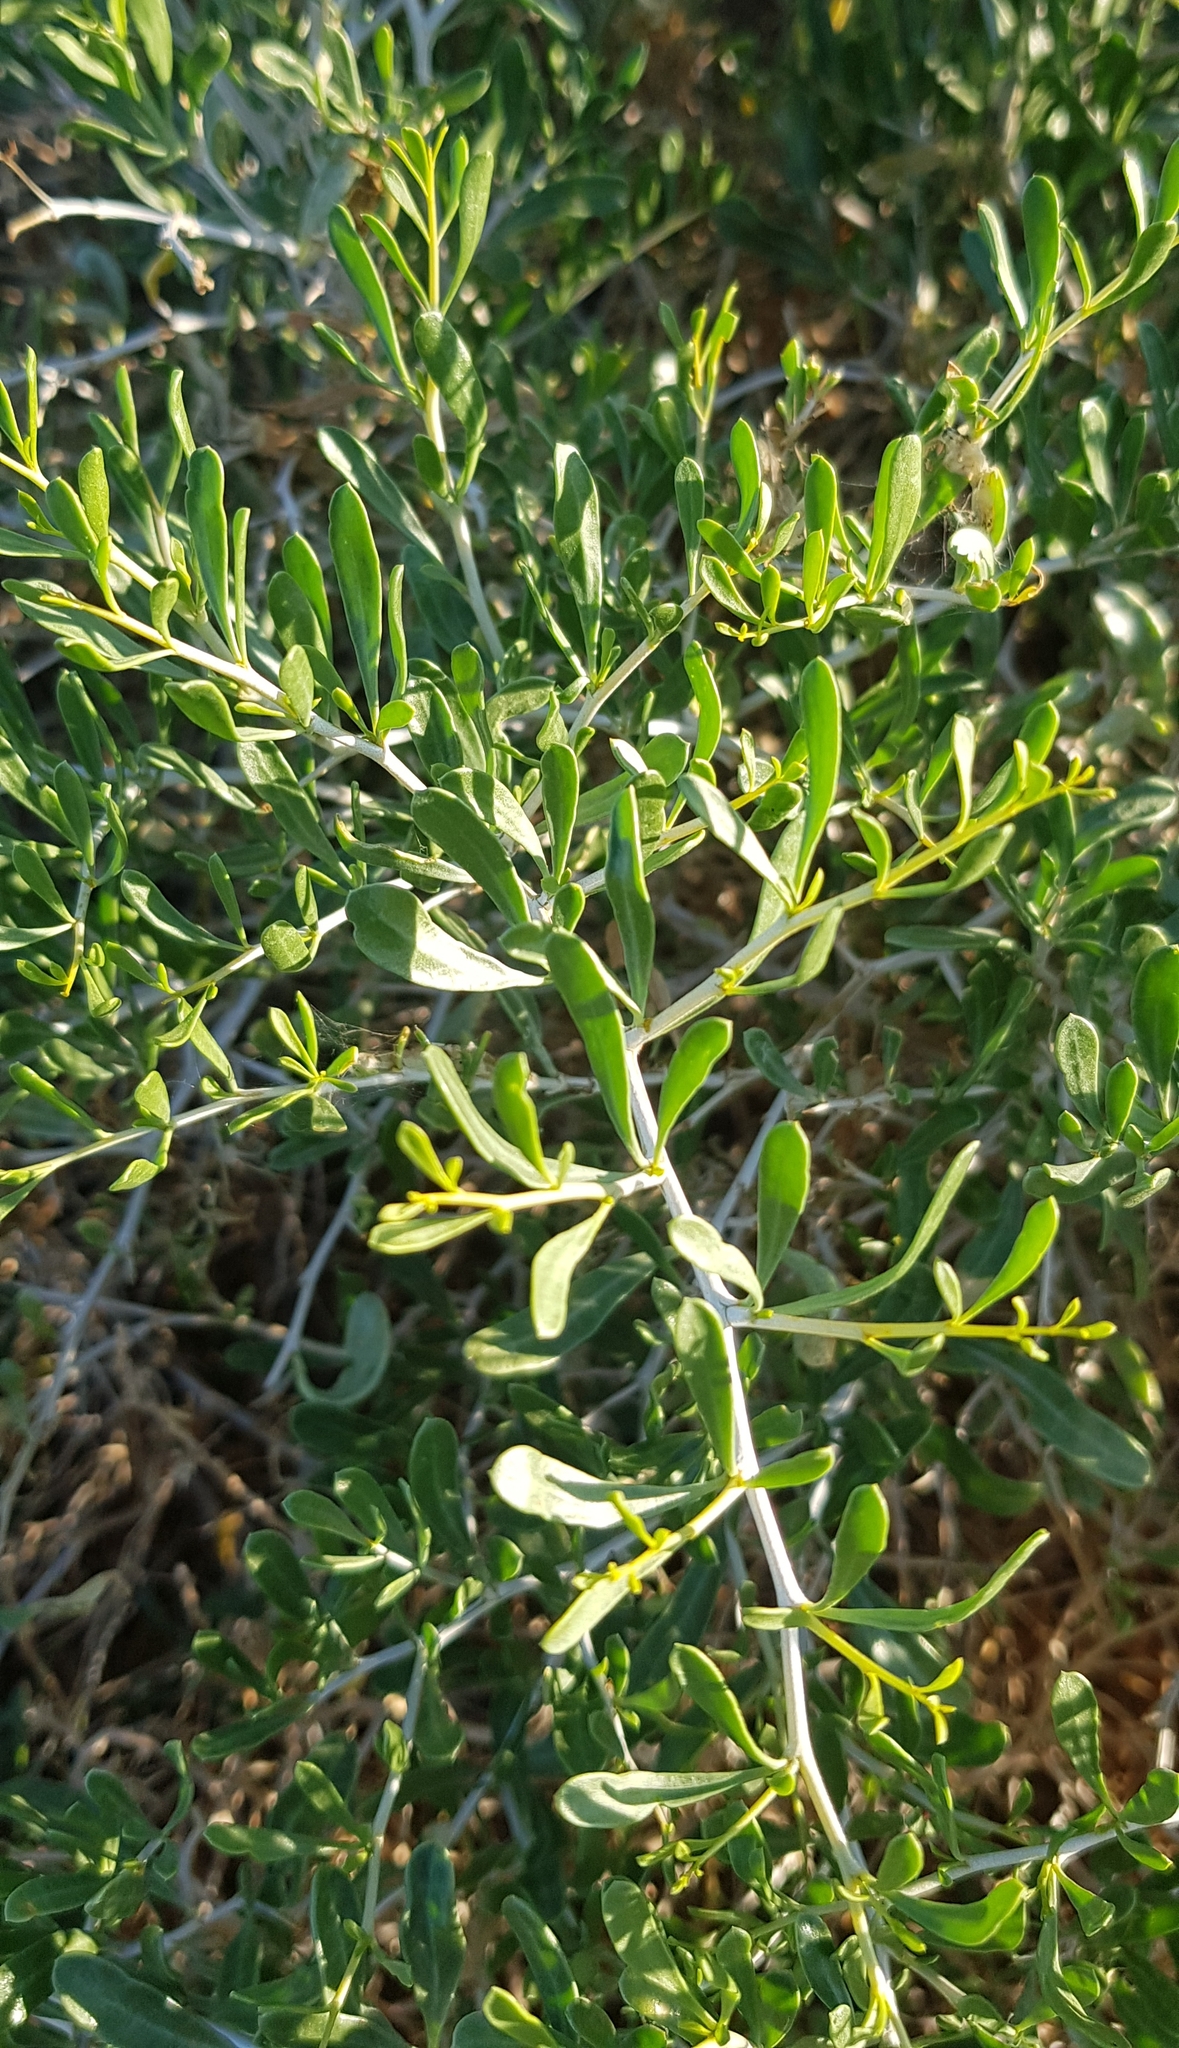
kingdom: Plantae
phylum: Tracheophyta
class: Magnoliopsida
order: Sapindales
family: Nitrariaceae
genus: Nitraria
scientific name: Nitraria sibirica
